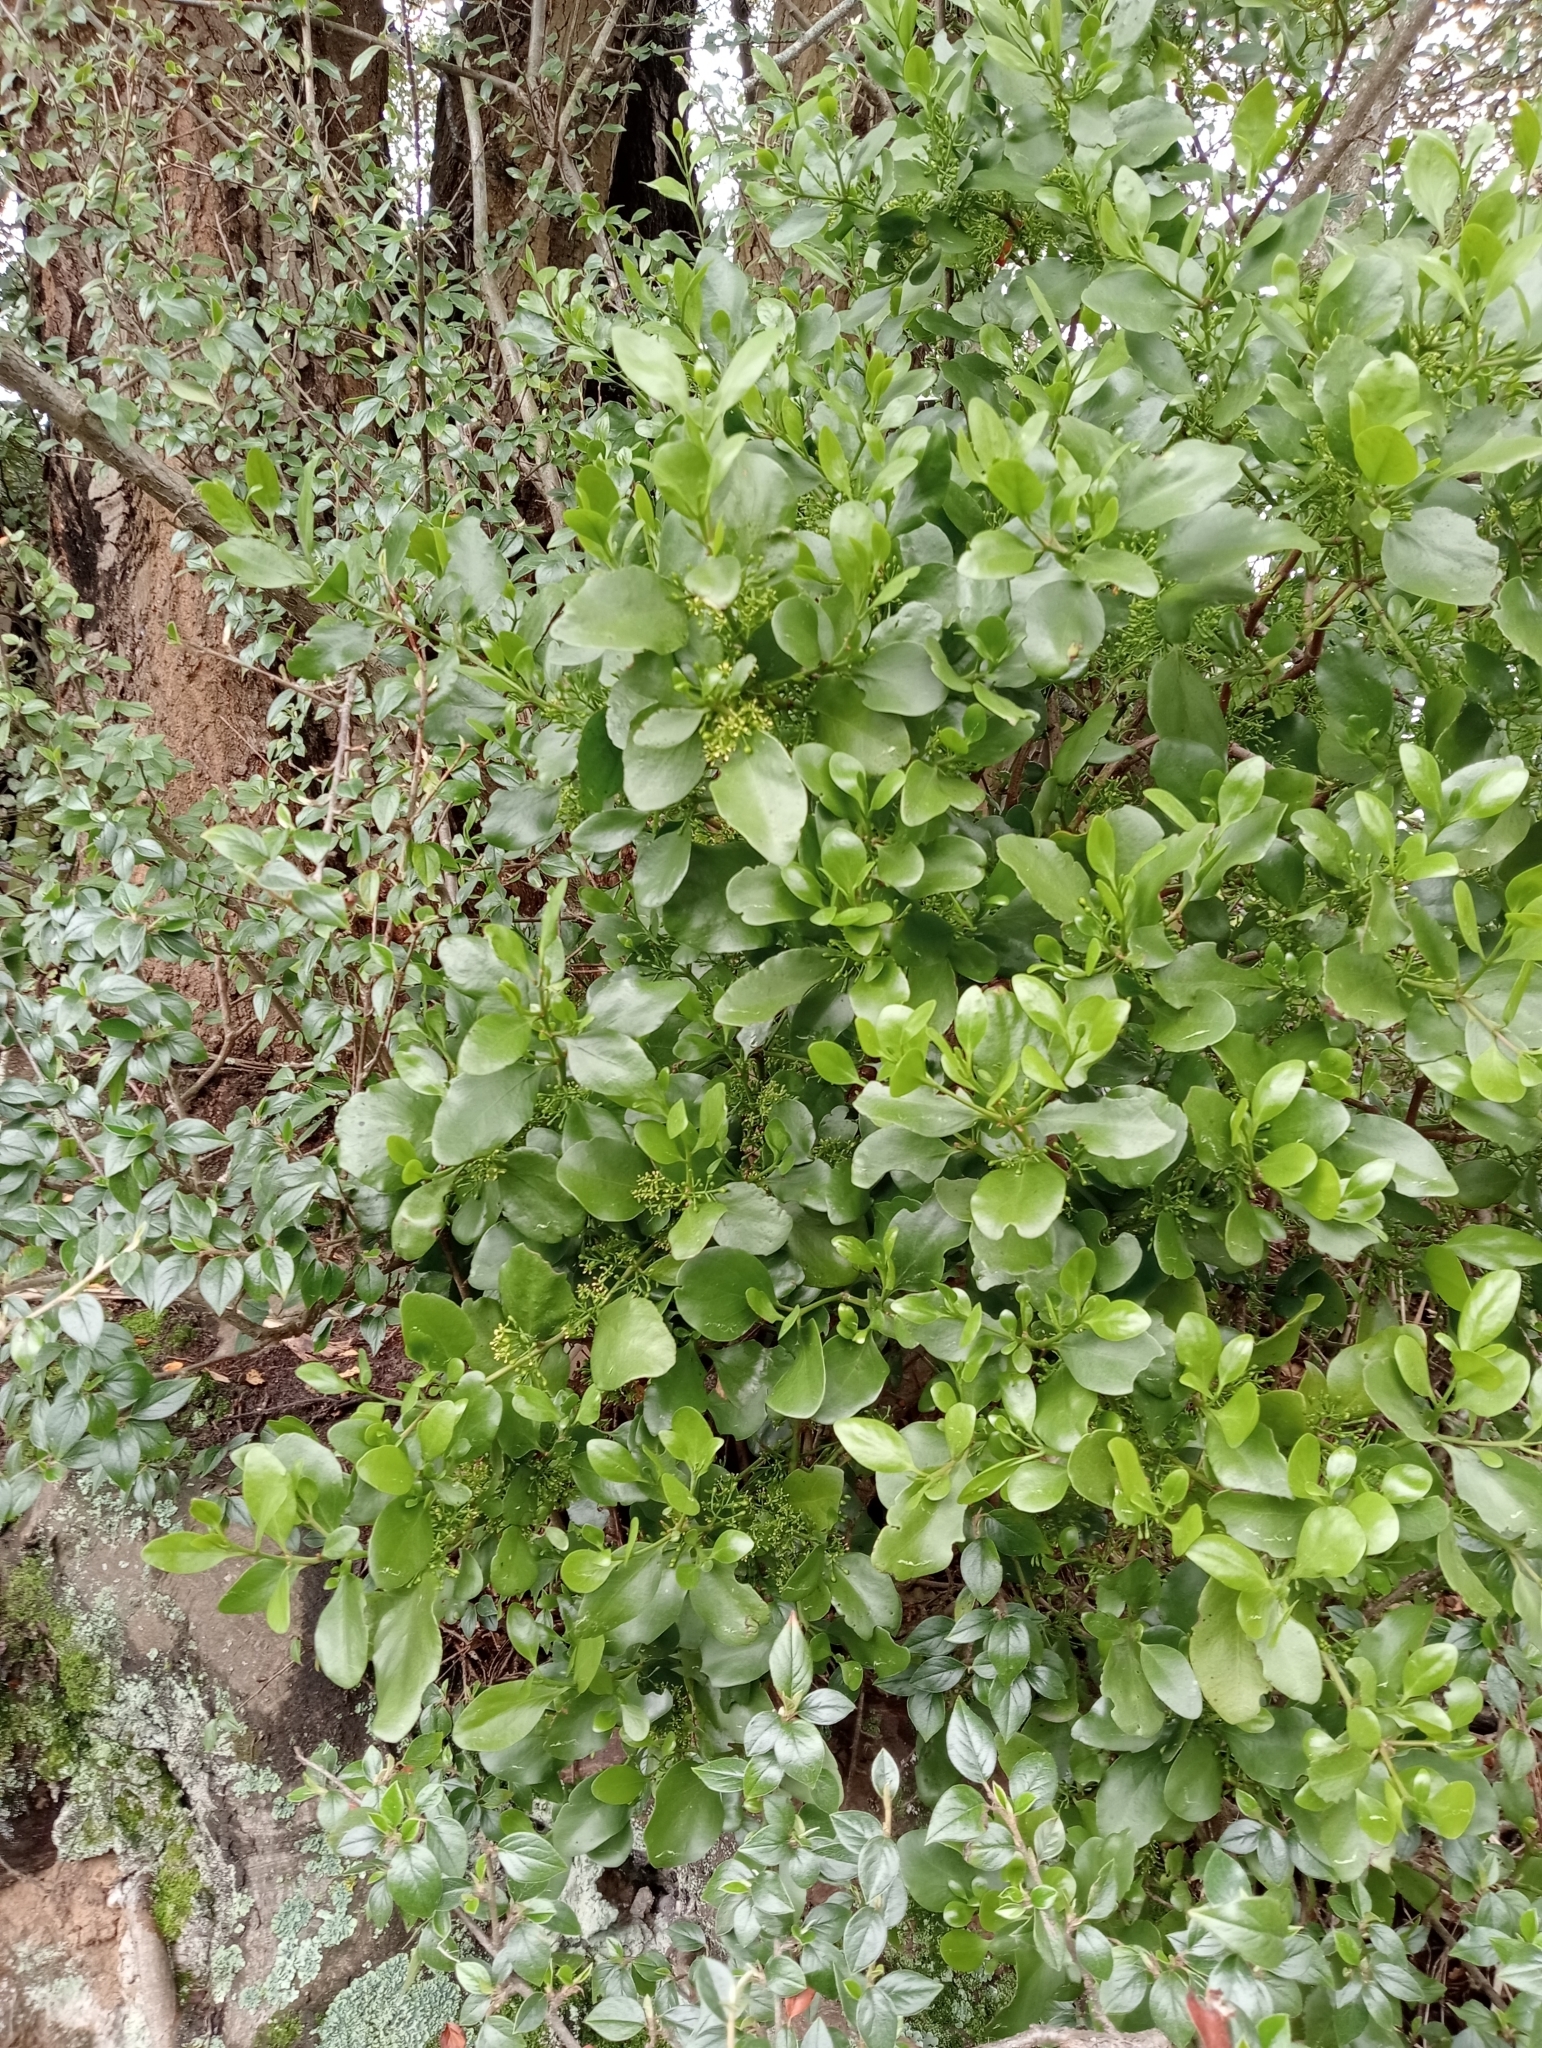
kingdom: Plantae
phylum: Tracheophyta
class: Magnoliopsida
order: Santalales
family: Loranthaceae
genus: Ileostylus
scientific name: Ileostylus micranthus
